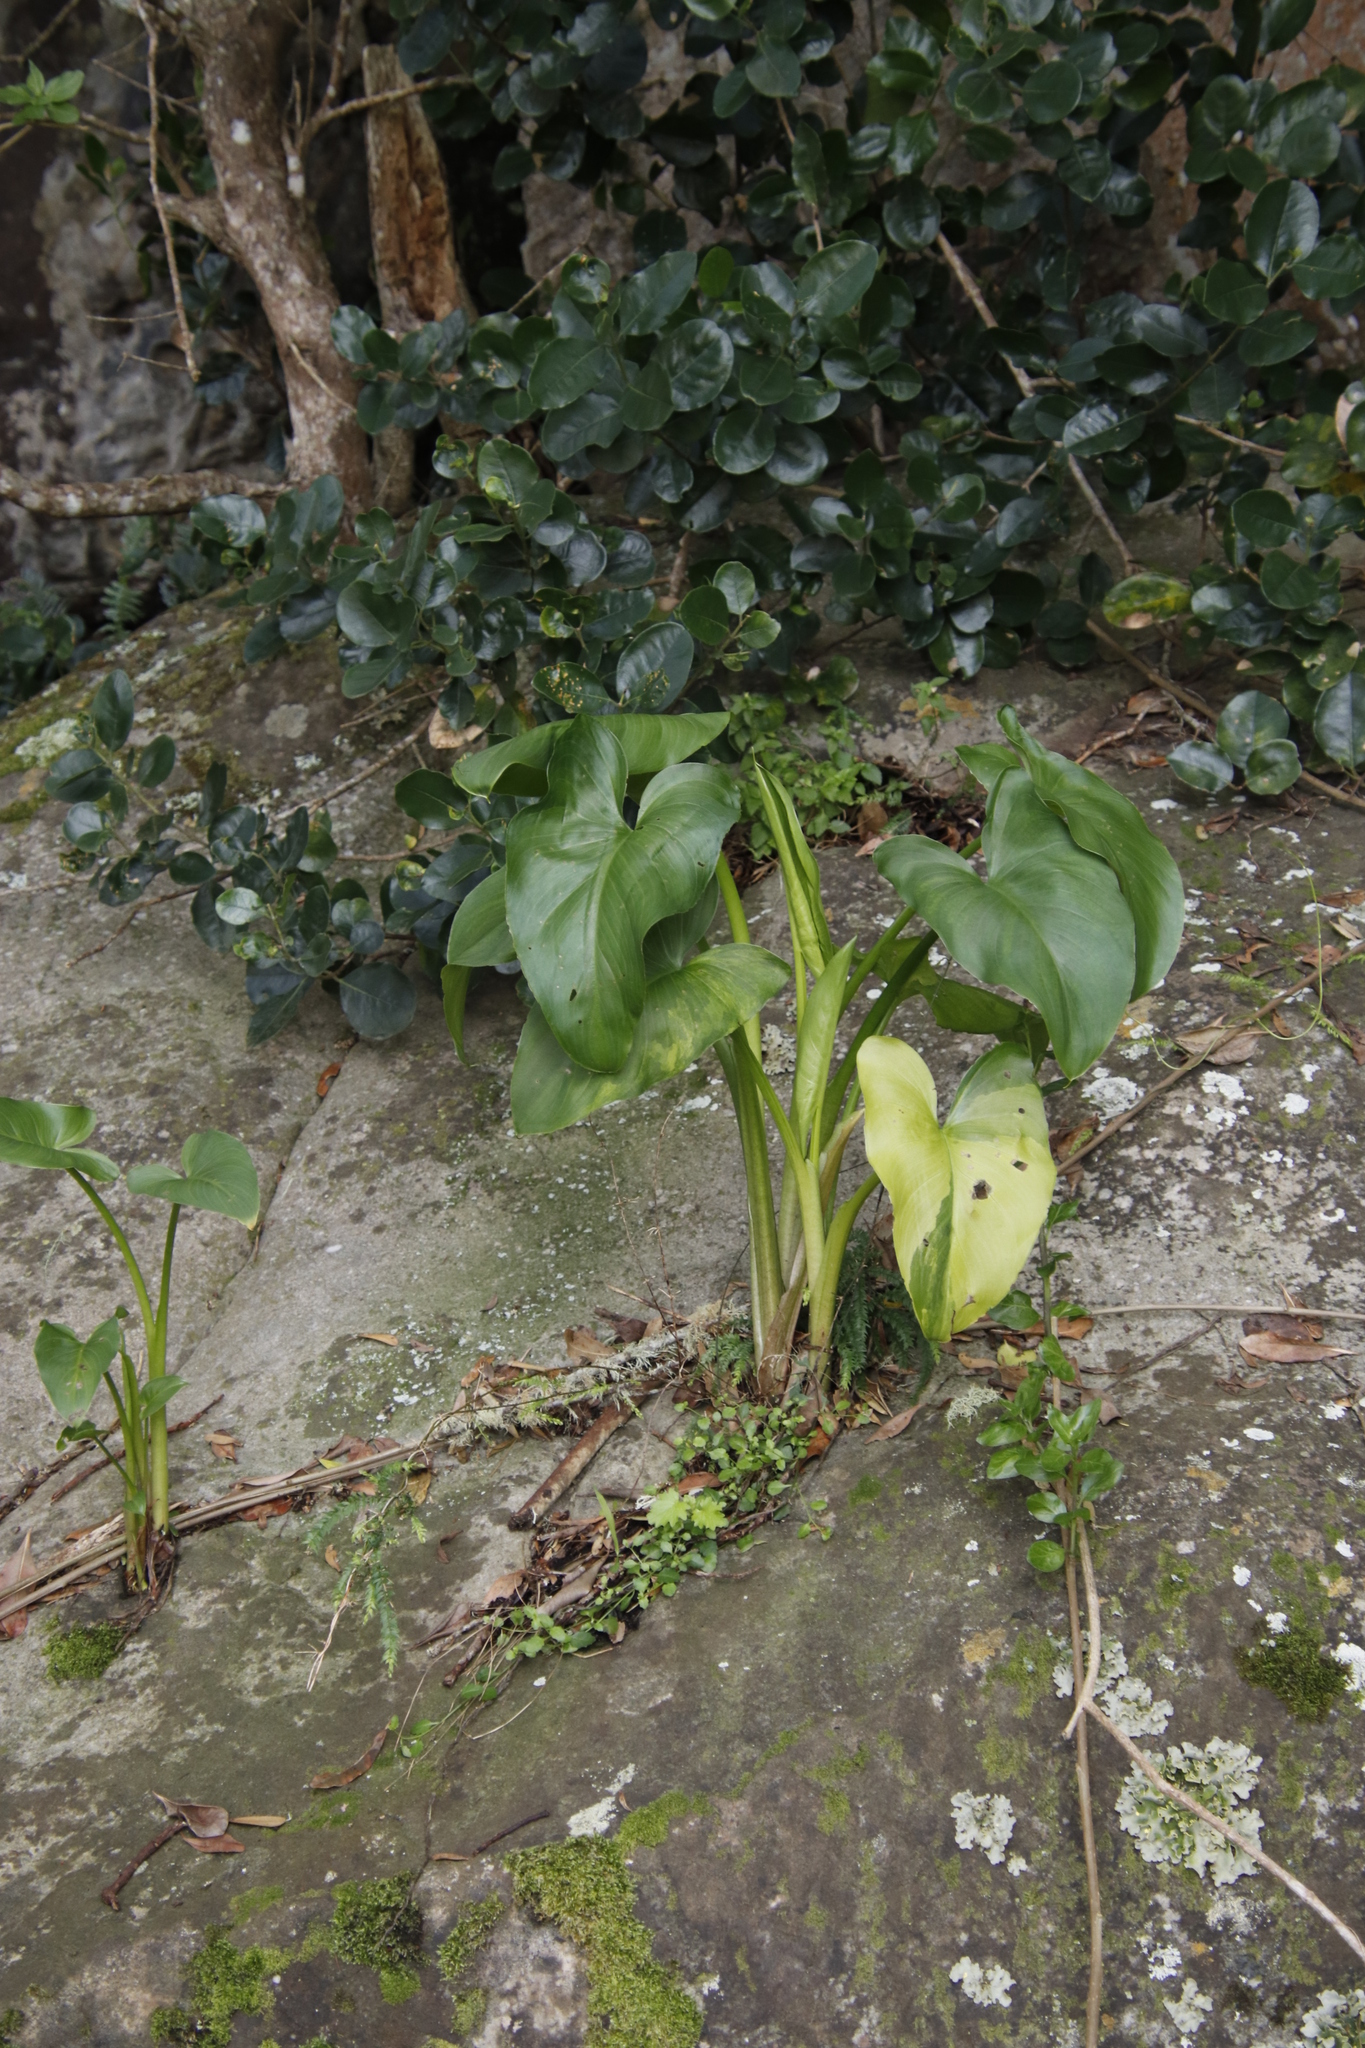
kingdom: Plantae
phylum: Tracheophyta
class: Liliopsida
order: Alismatales
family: Araceae
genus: Zantedeschia
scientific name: Zantedeschia aethiopica
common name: Altar-lily
